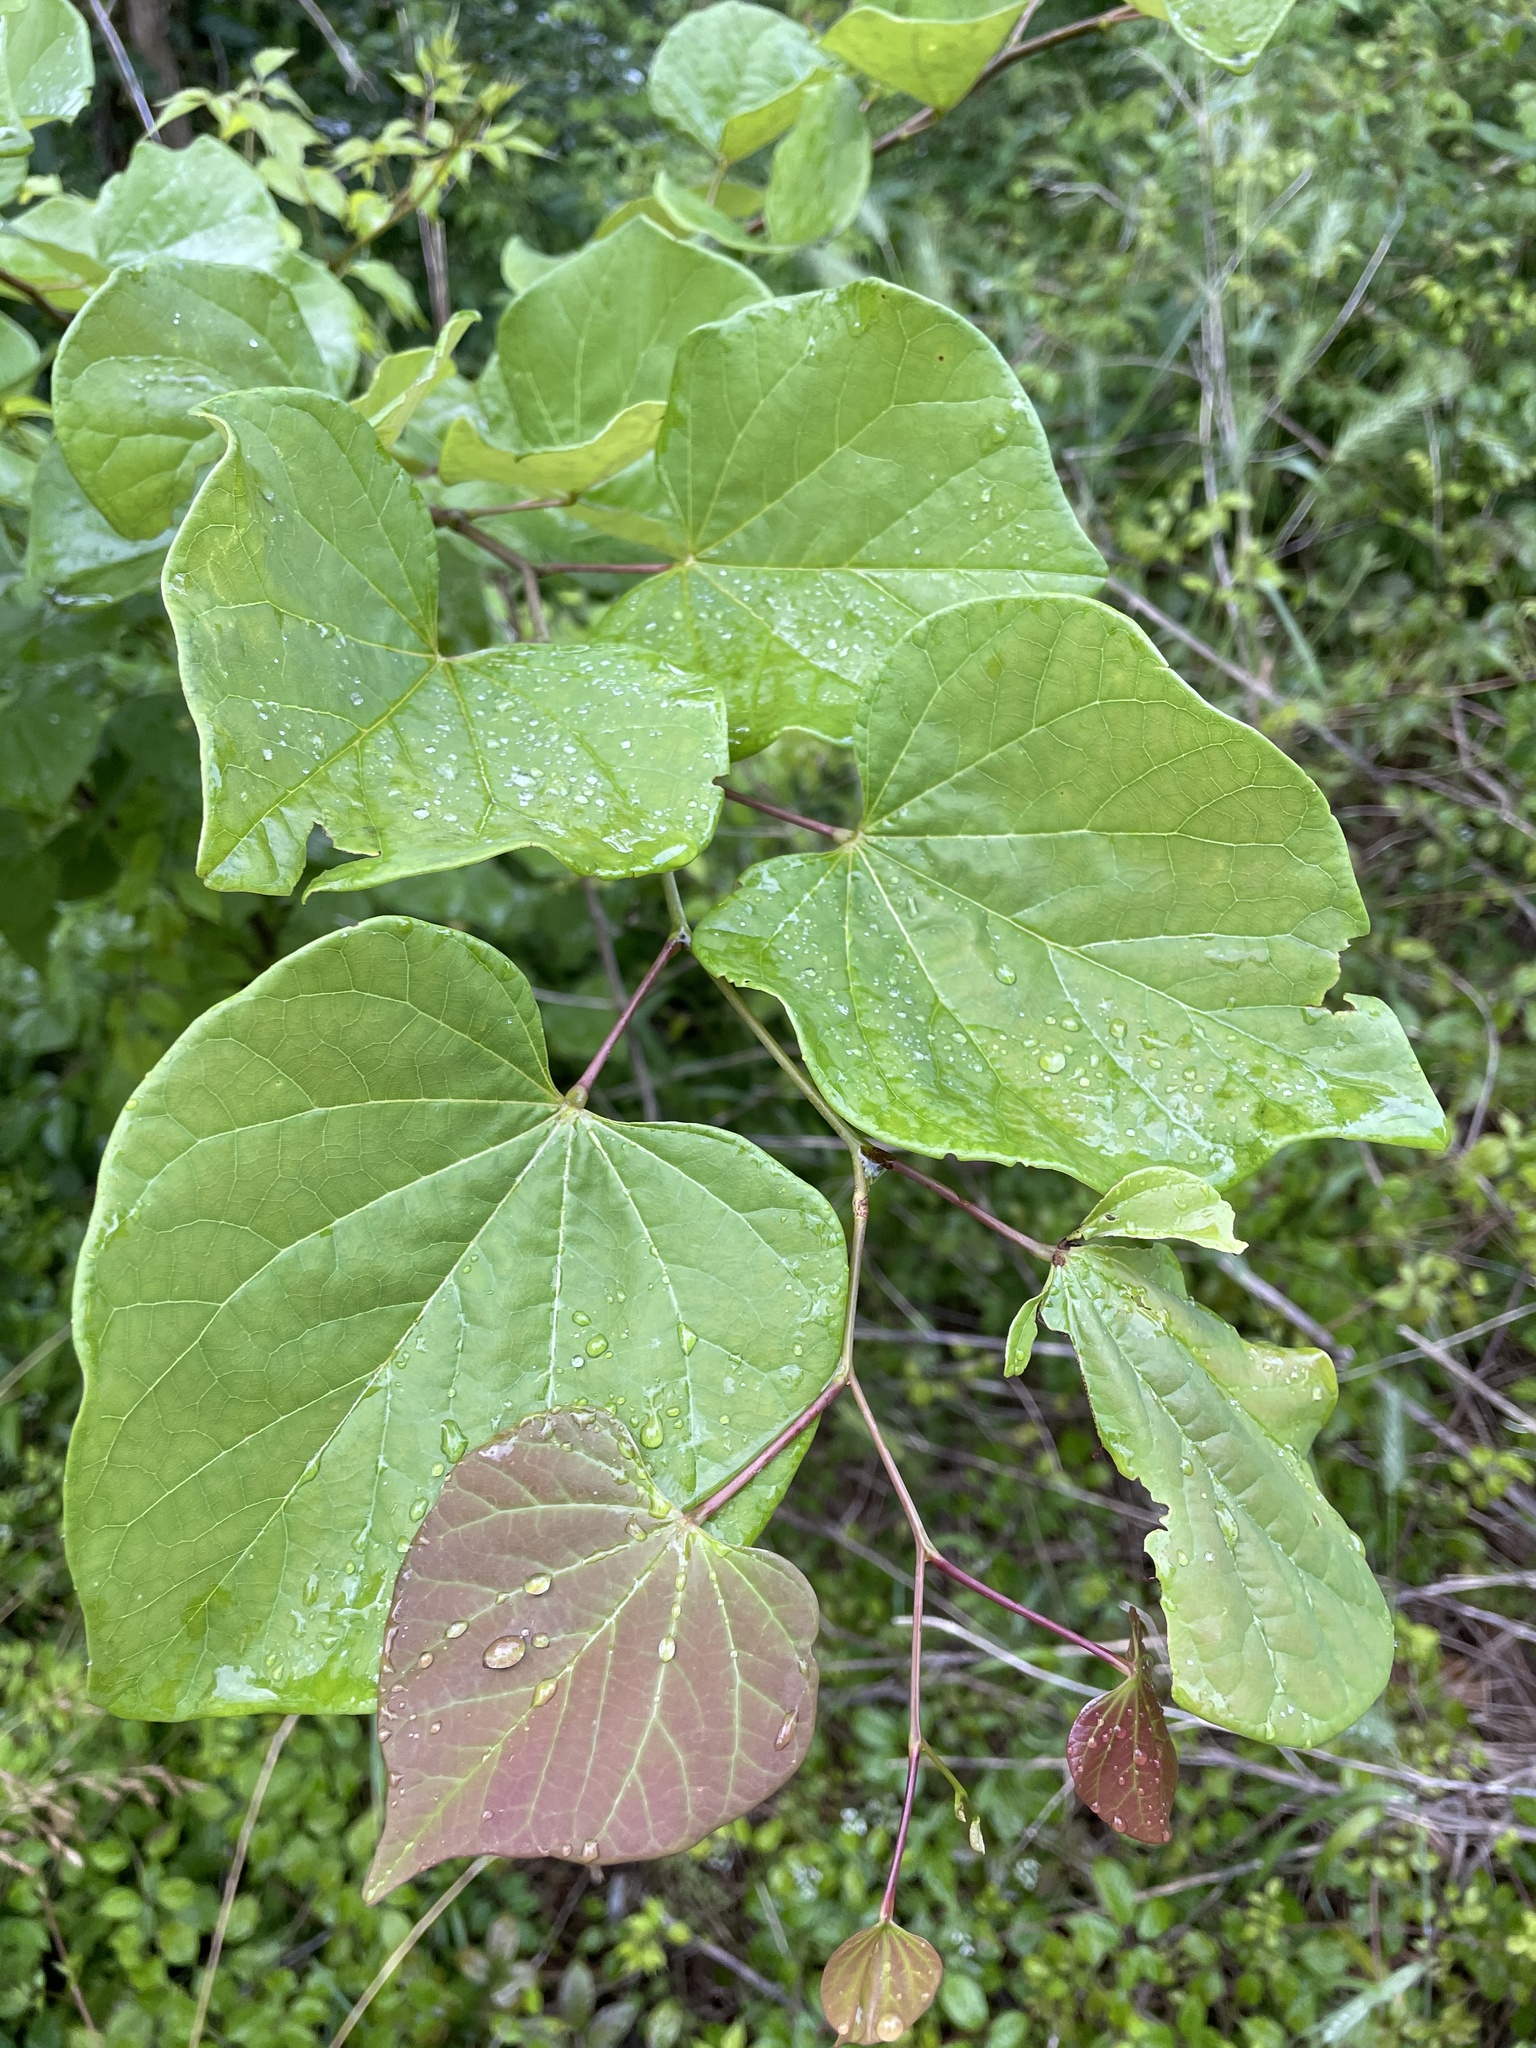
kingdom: Plantae
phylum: Tracheophyta
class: Magnoliopsida
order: Fabales
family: Fabaceae
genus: Cercis
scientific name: Cercis canadensis
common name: Eastern redbud
